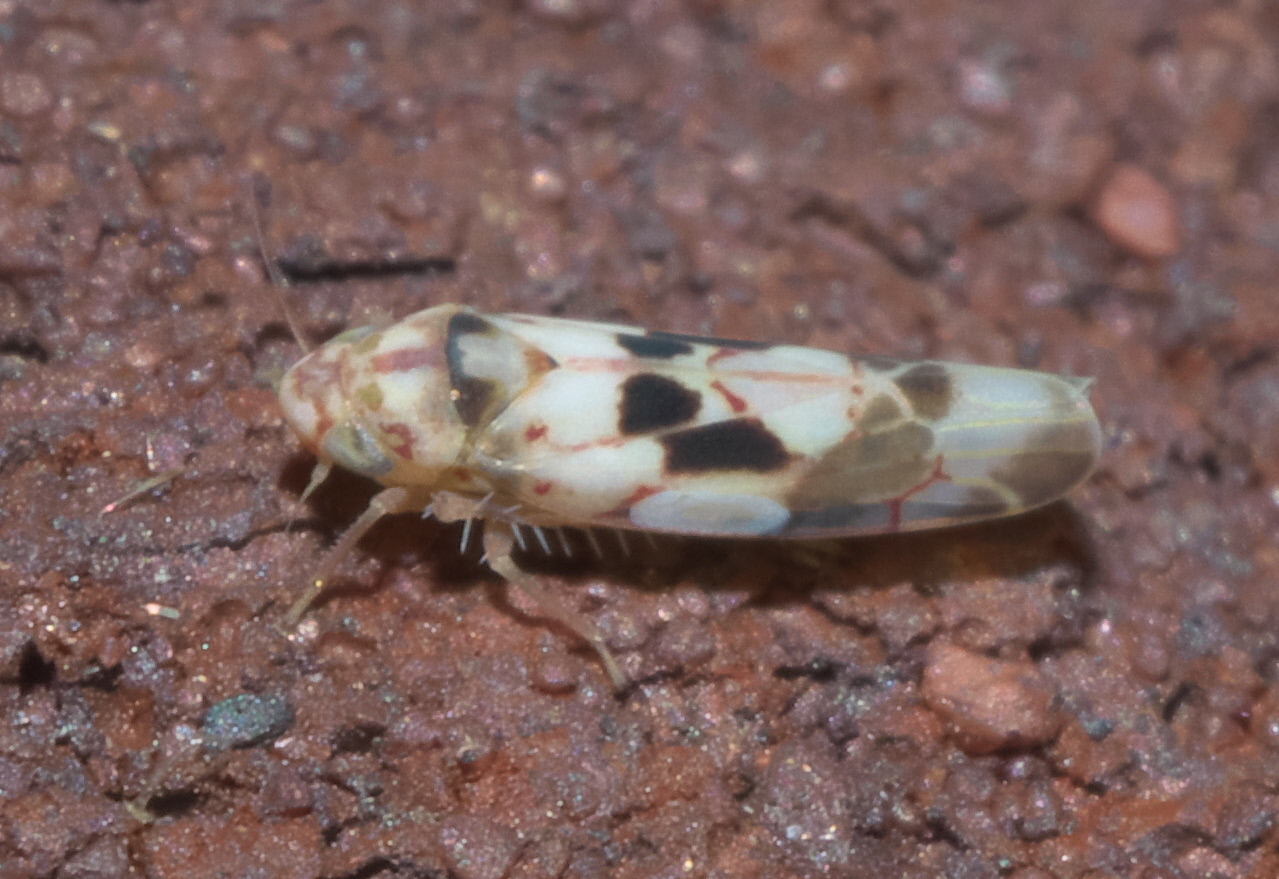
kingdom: Animalia
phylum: Arthropoda
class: Insecta
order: Hemiptera
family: Cicadellidae
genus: Eratoneura
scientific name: Eratoneura hymettana
